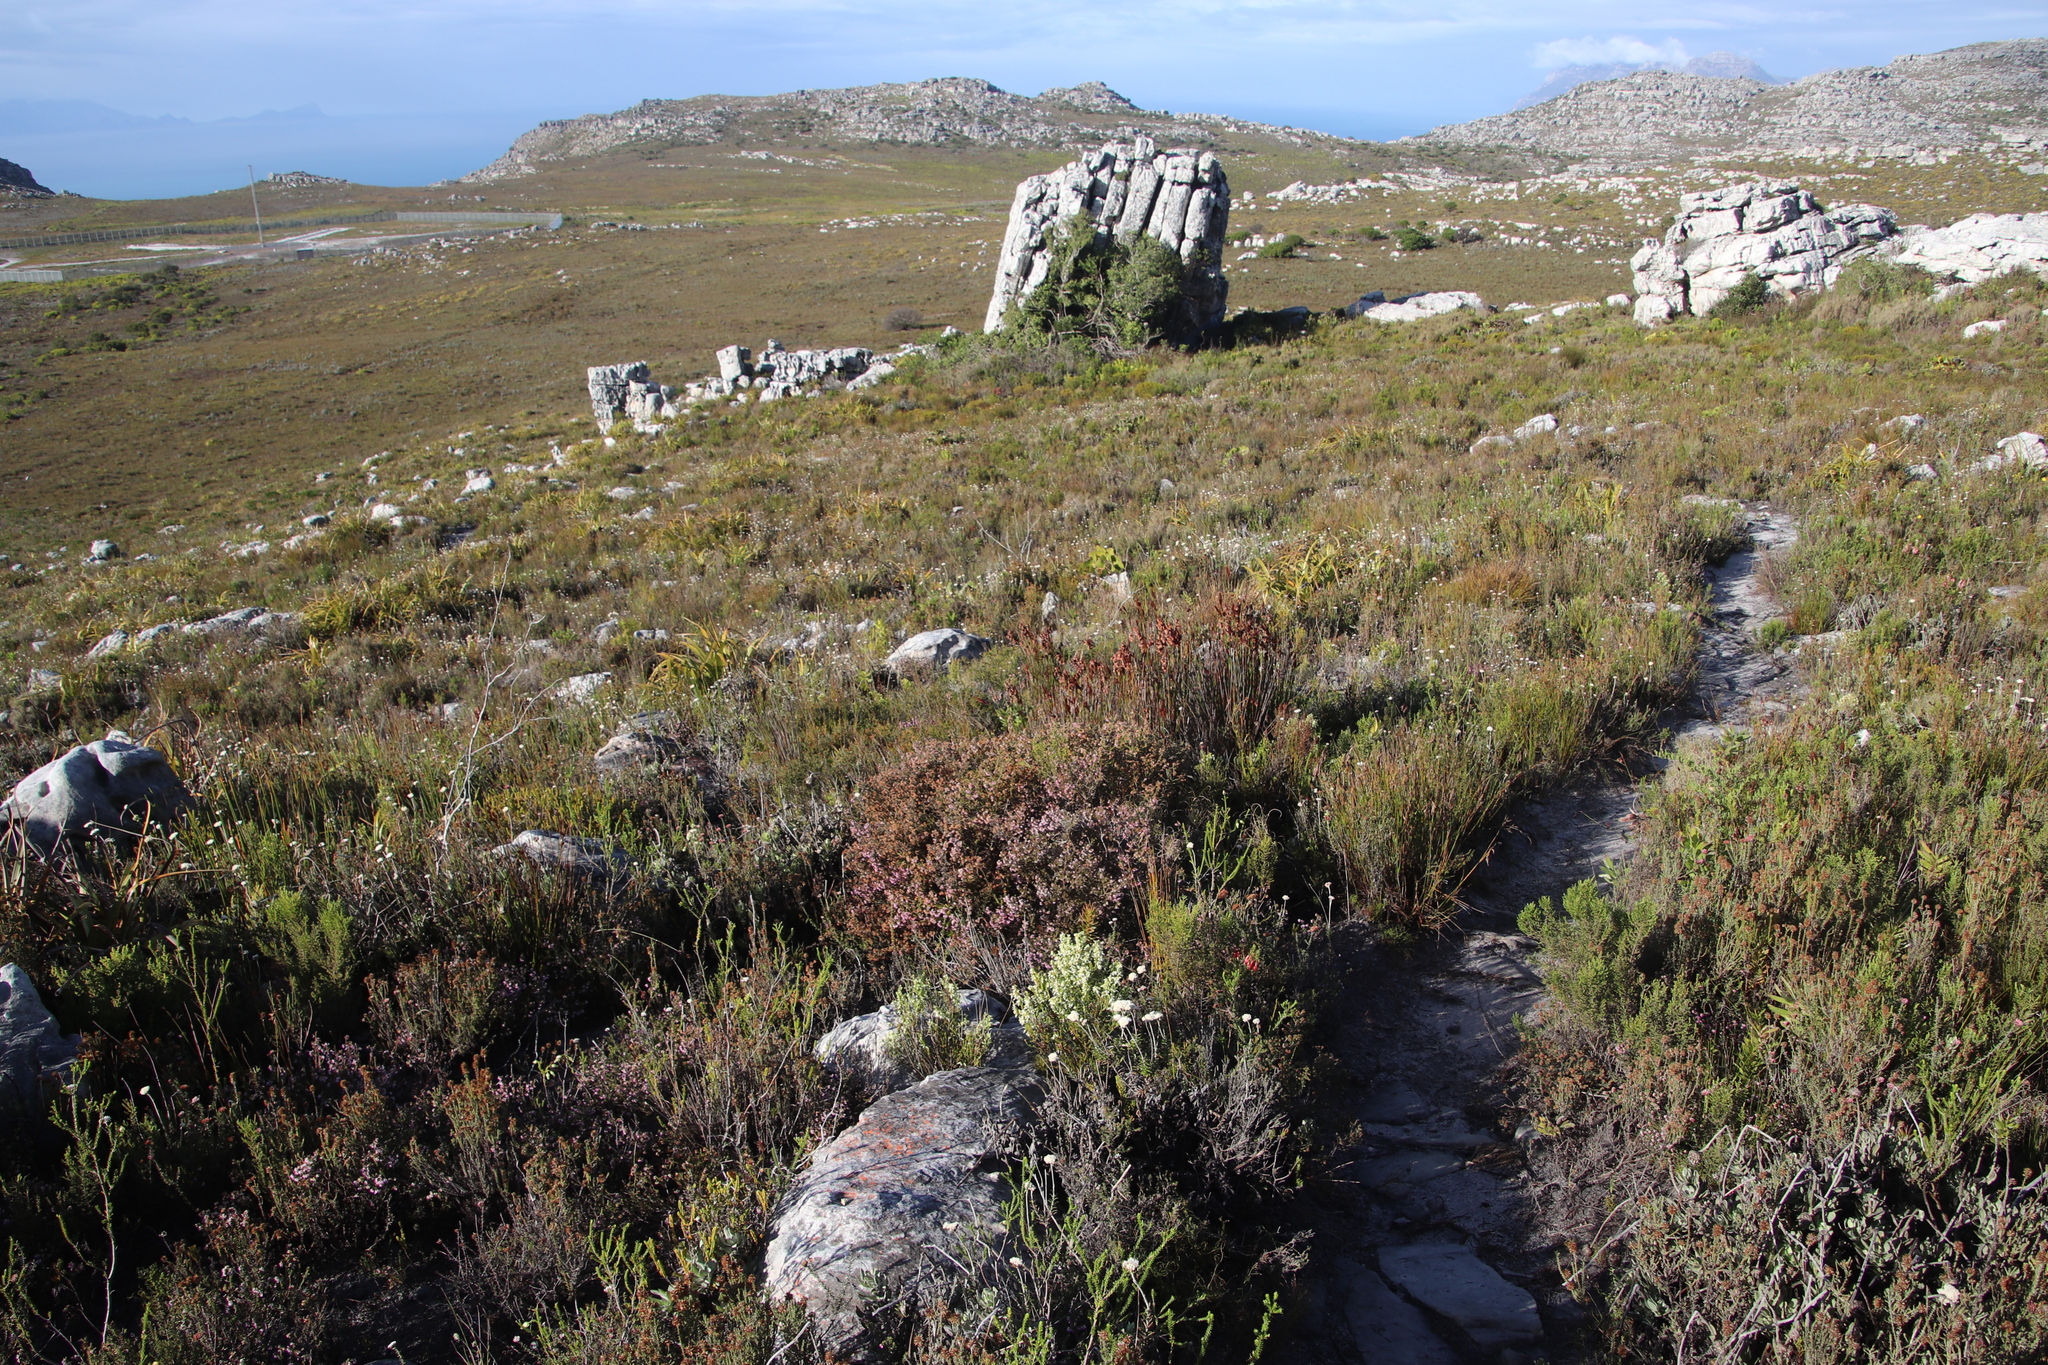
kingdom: Plantae
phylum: Tracheophyta
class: Magnoliopsida
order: Ericales
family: Ericaceae
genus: Erica
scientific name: Erica lutea
